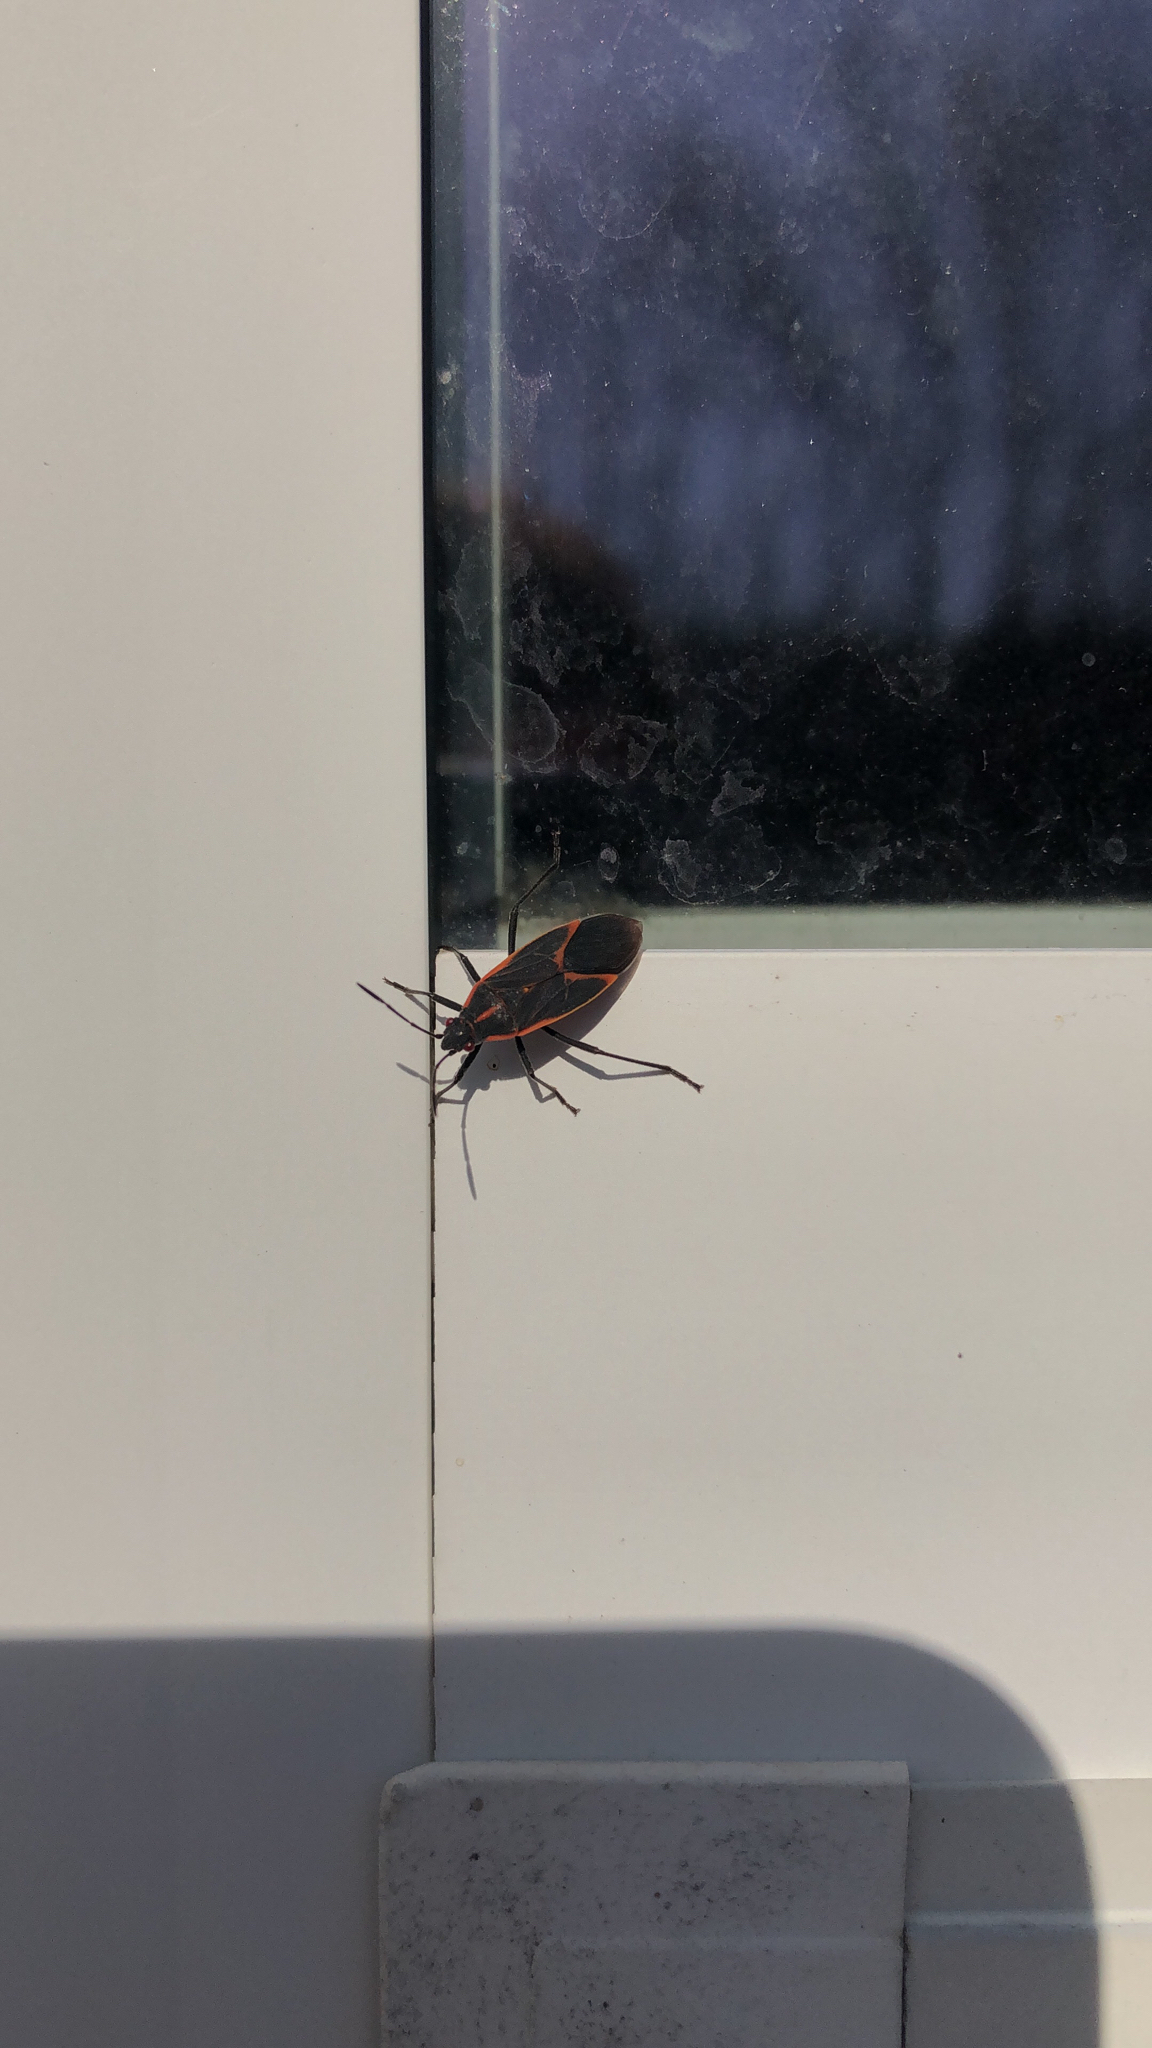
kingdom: Animalia
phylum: Arthropoda
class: Insecta
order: Hemiptera
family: Rhopalidae
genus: Boisea
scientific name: Boisea trivittata
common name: Boxelder bug
